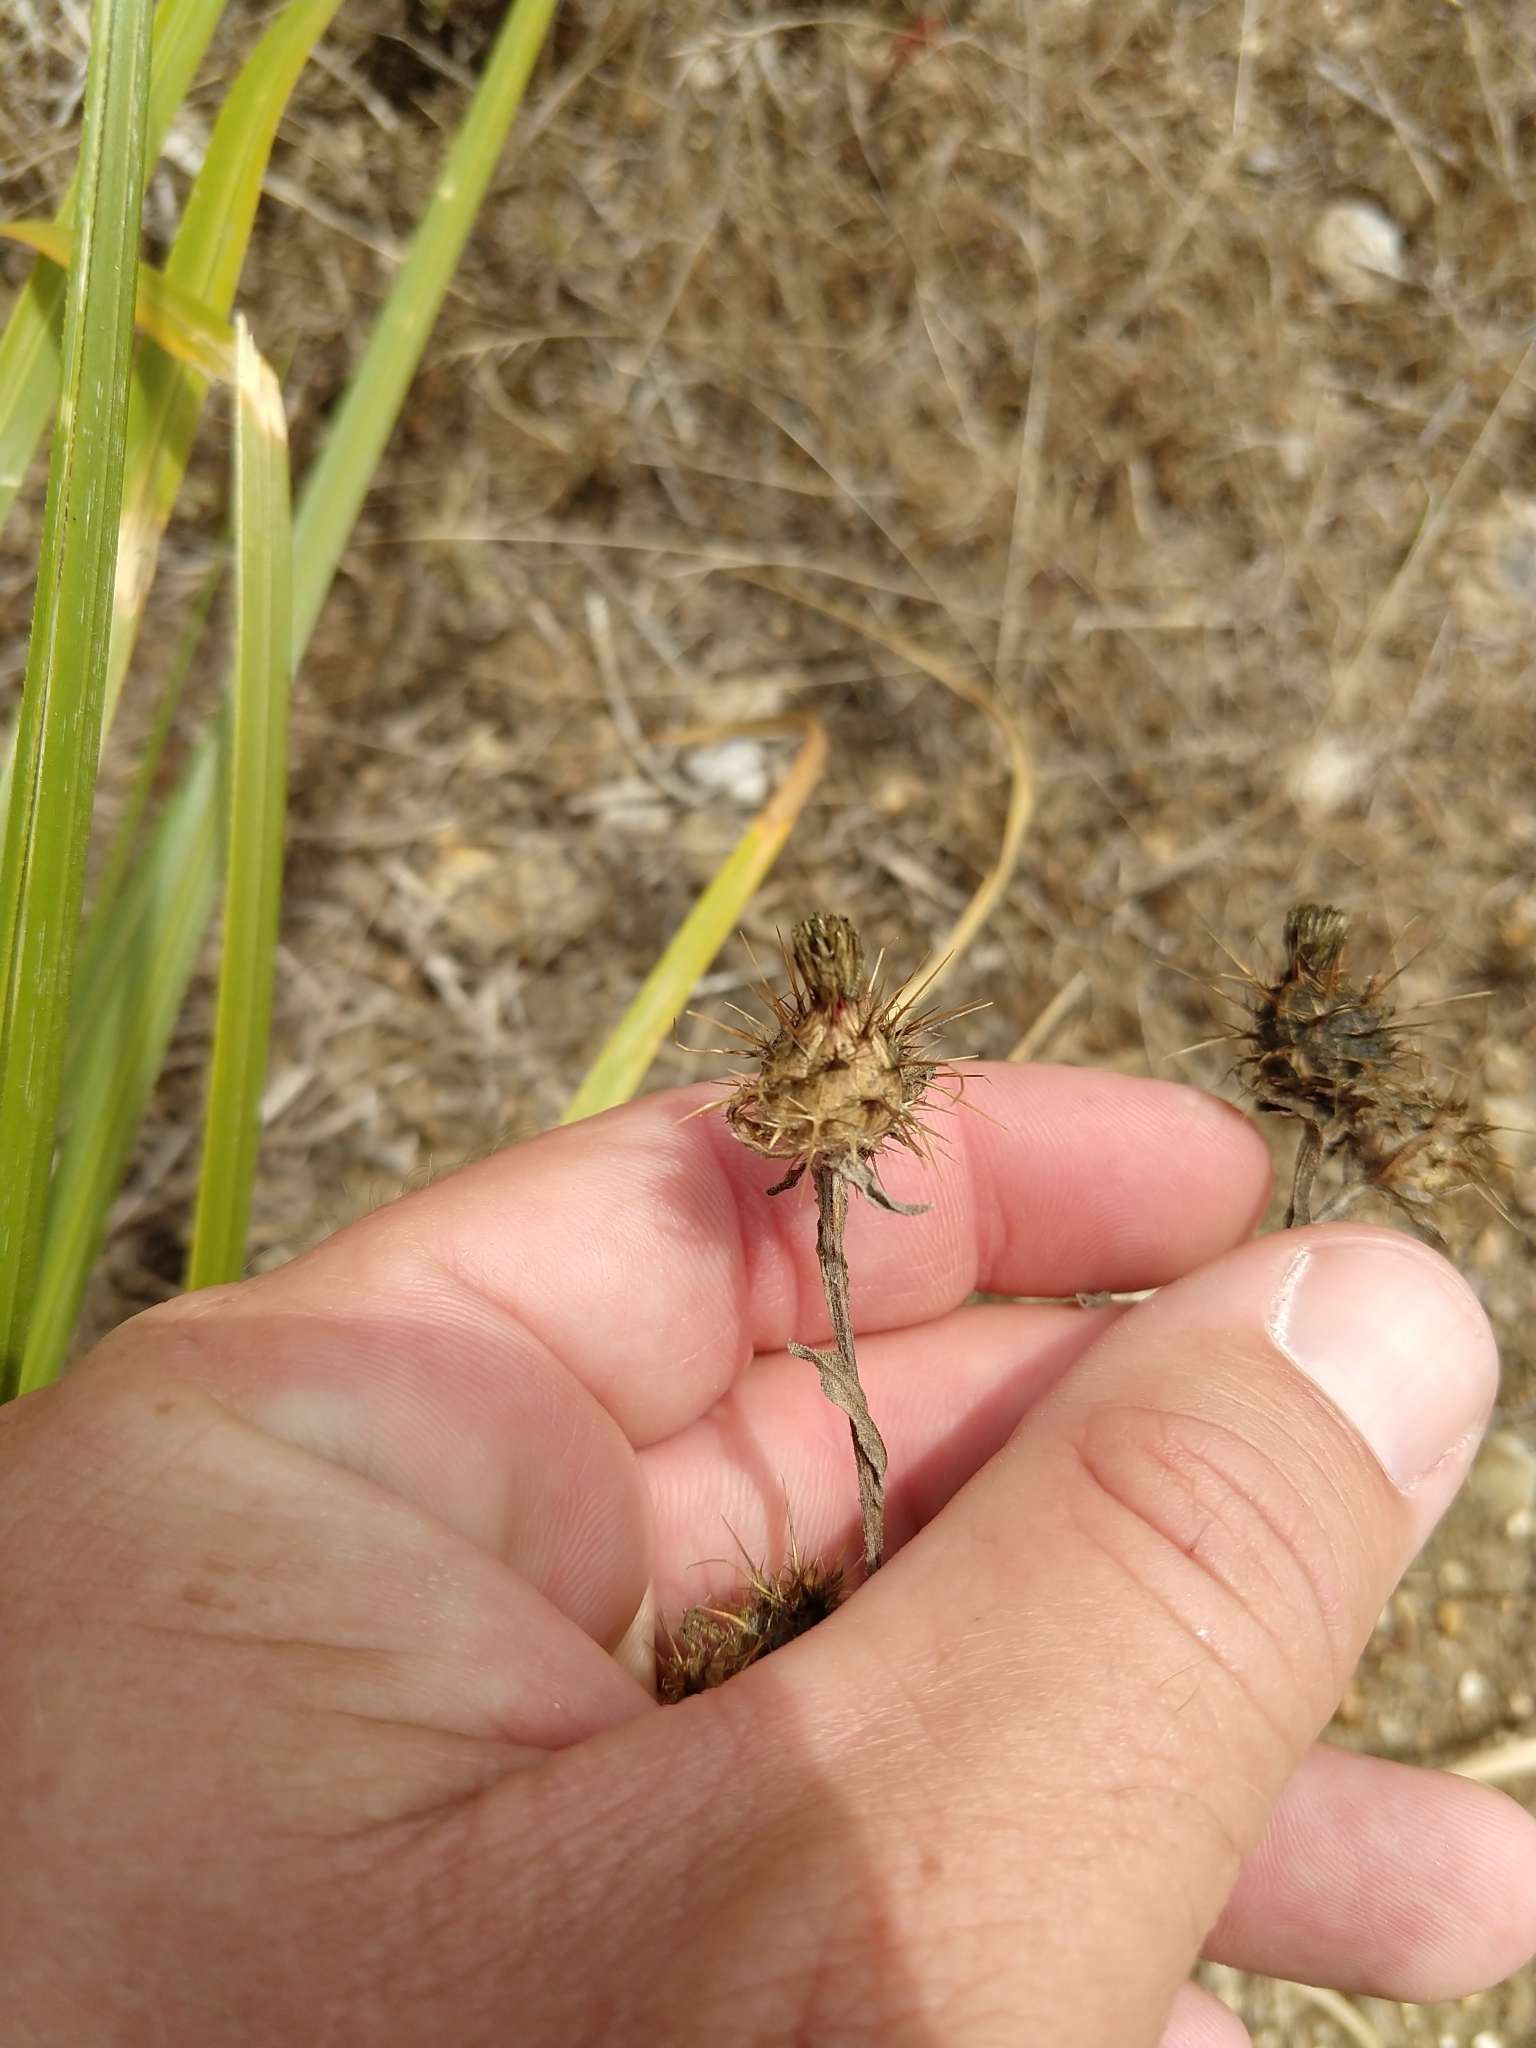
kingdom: Plantae
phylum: Tracheophyta
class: Magnoliopsida
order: Asterales
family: Asteraceae
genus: Centaurea
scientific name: Centaurea melitensis
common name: Maltese star-thistle
